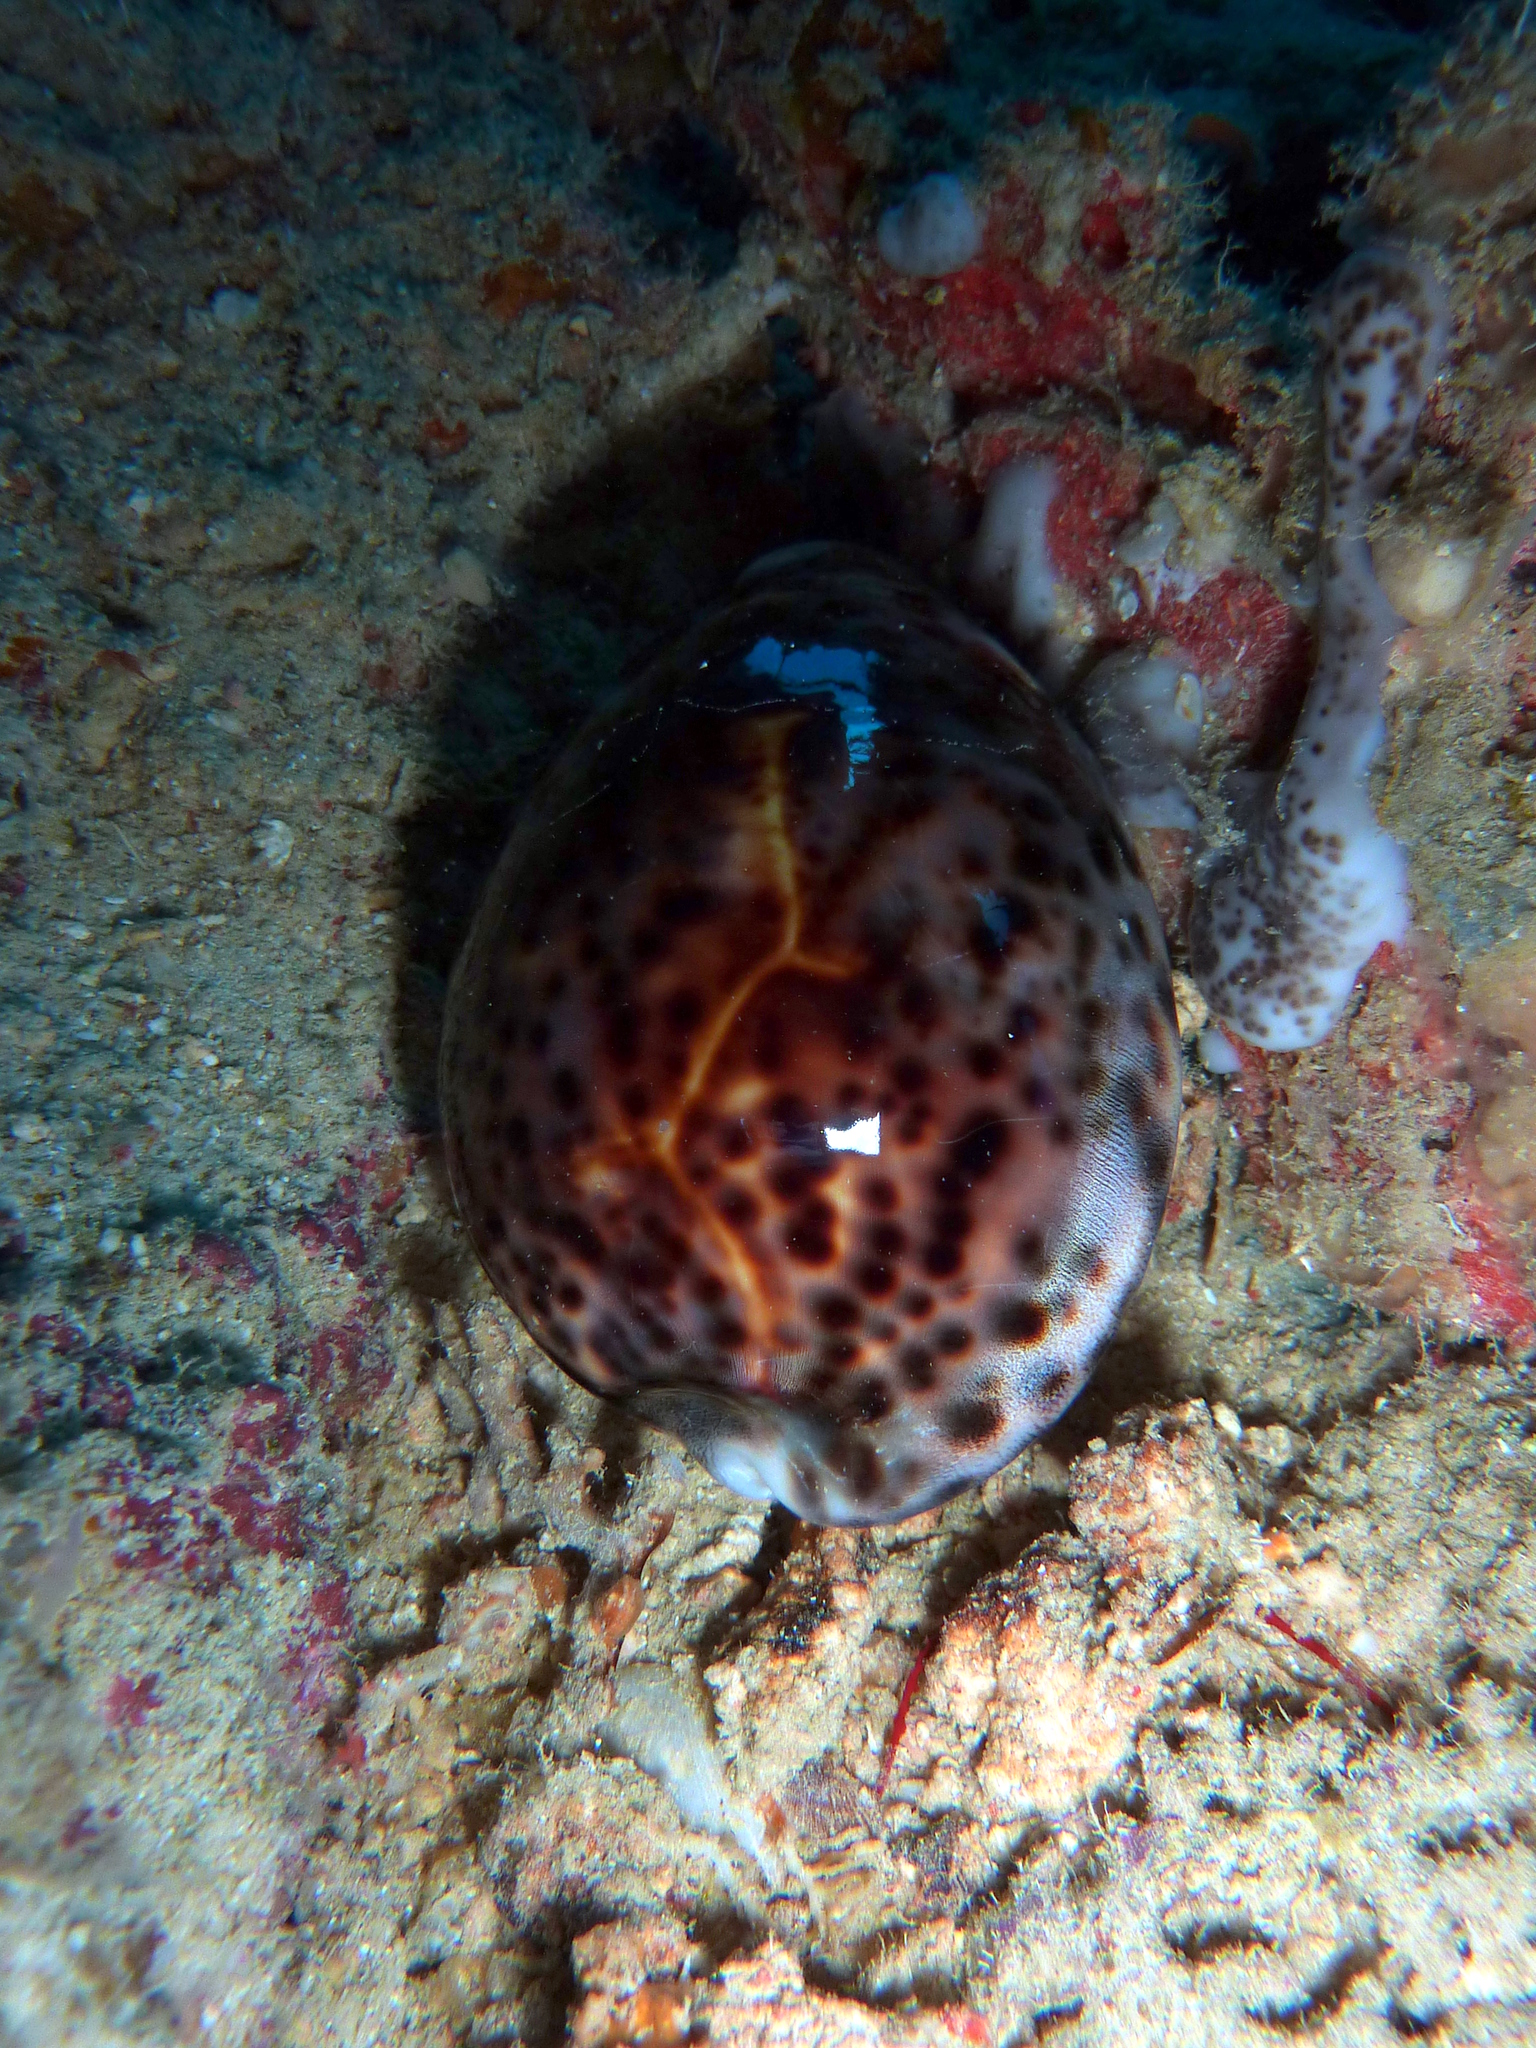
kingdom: Animalia
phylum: Mollusca
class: Gastropoda
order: Littorinimorpha
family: Cypraeidae
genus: Cypraea
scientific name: Cypraea tigris
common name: Tiger cowrie
